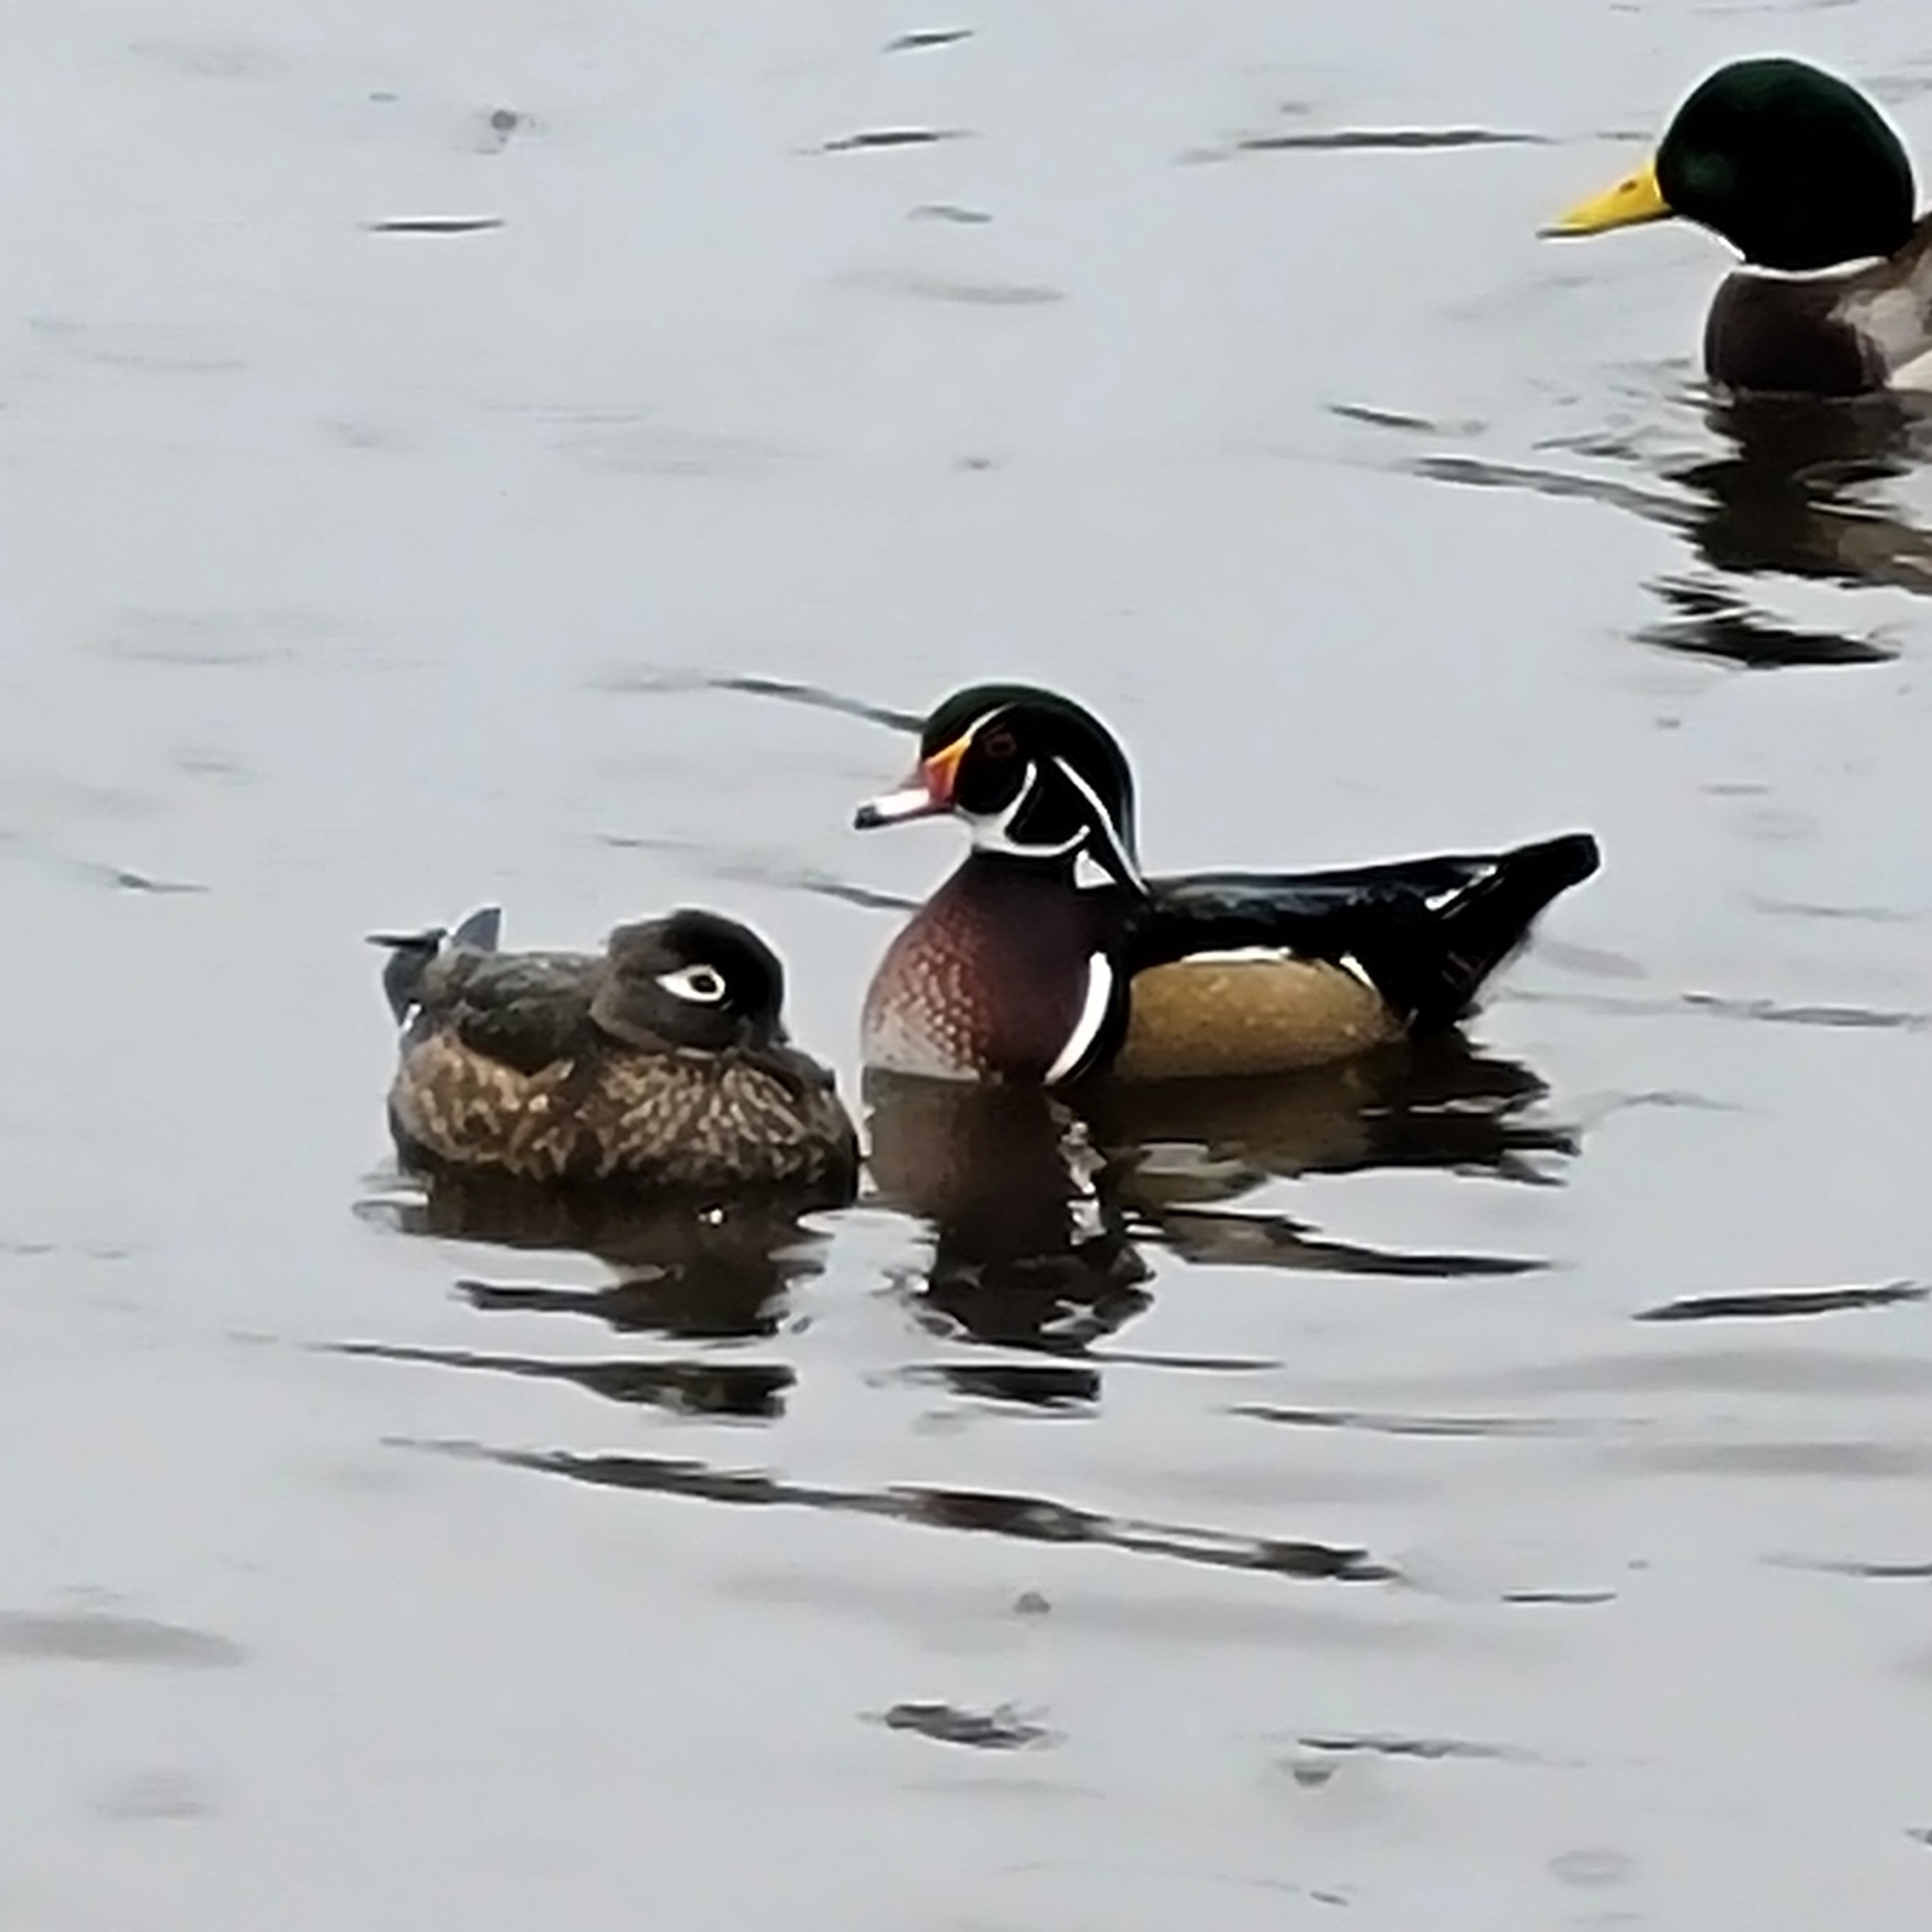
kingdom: Animalia
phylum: Chordata
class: Aves
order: Anseriformes
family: Anatidae
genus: Aix
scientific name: Aix sponsa
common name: Wood duck
